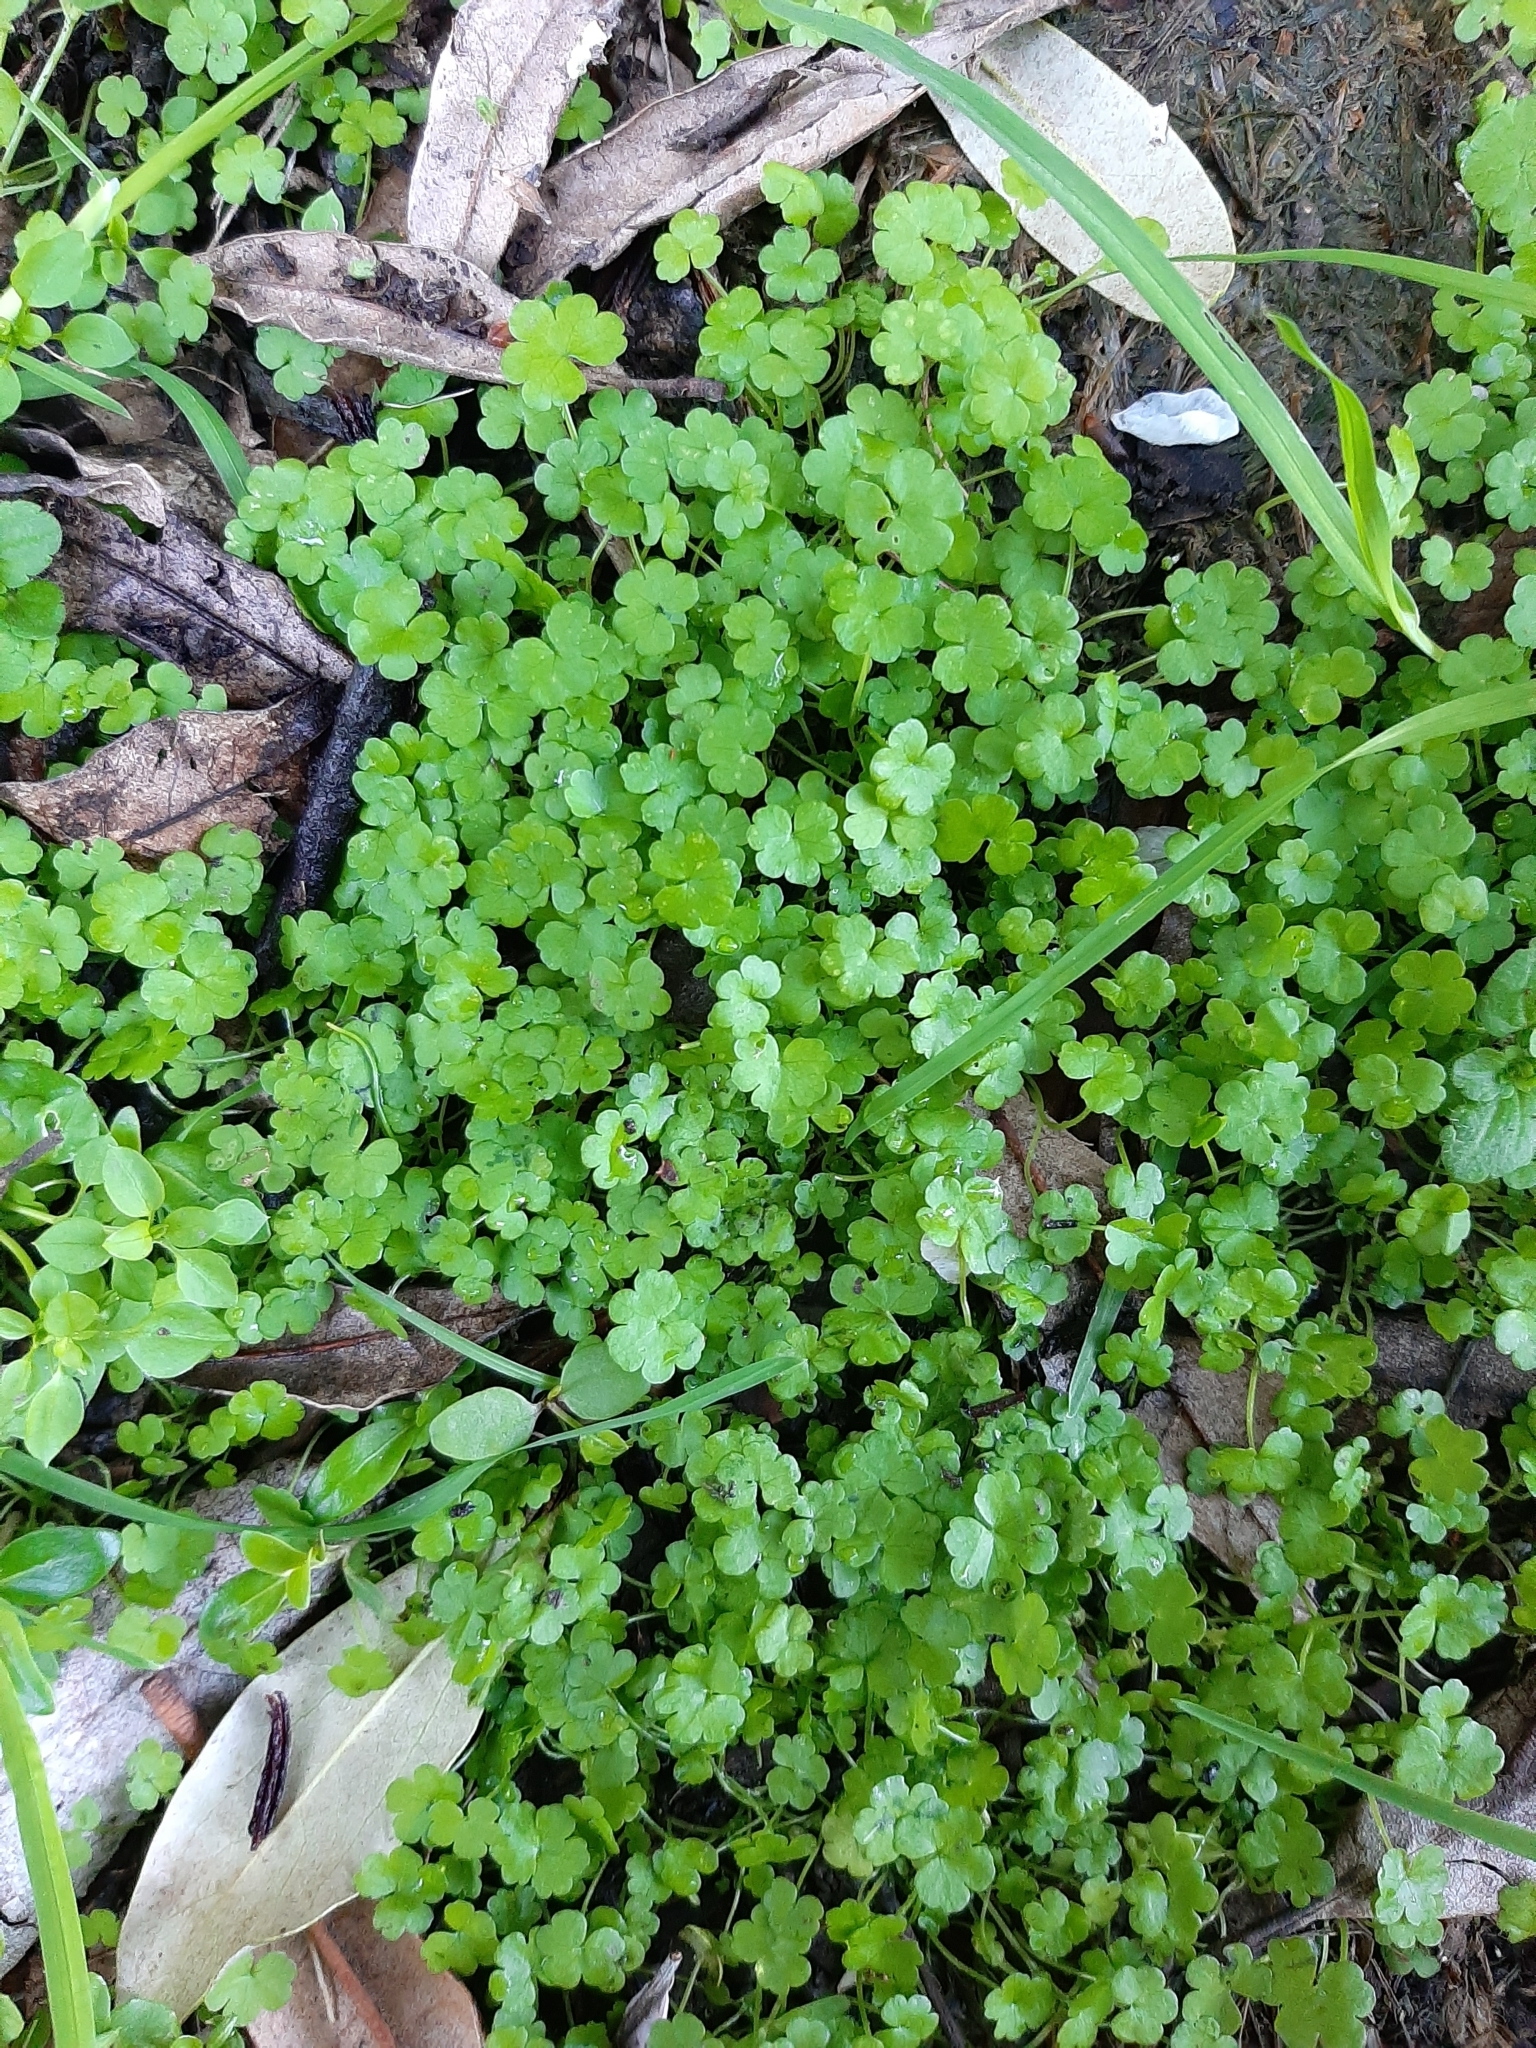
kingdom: Plantae
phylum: Tracheophyta
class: Magnoliopsida
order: Apiales
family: Araliaceae
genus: Hydrocotyle
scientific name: Hydrocotyle heteromeria
